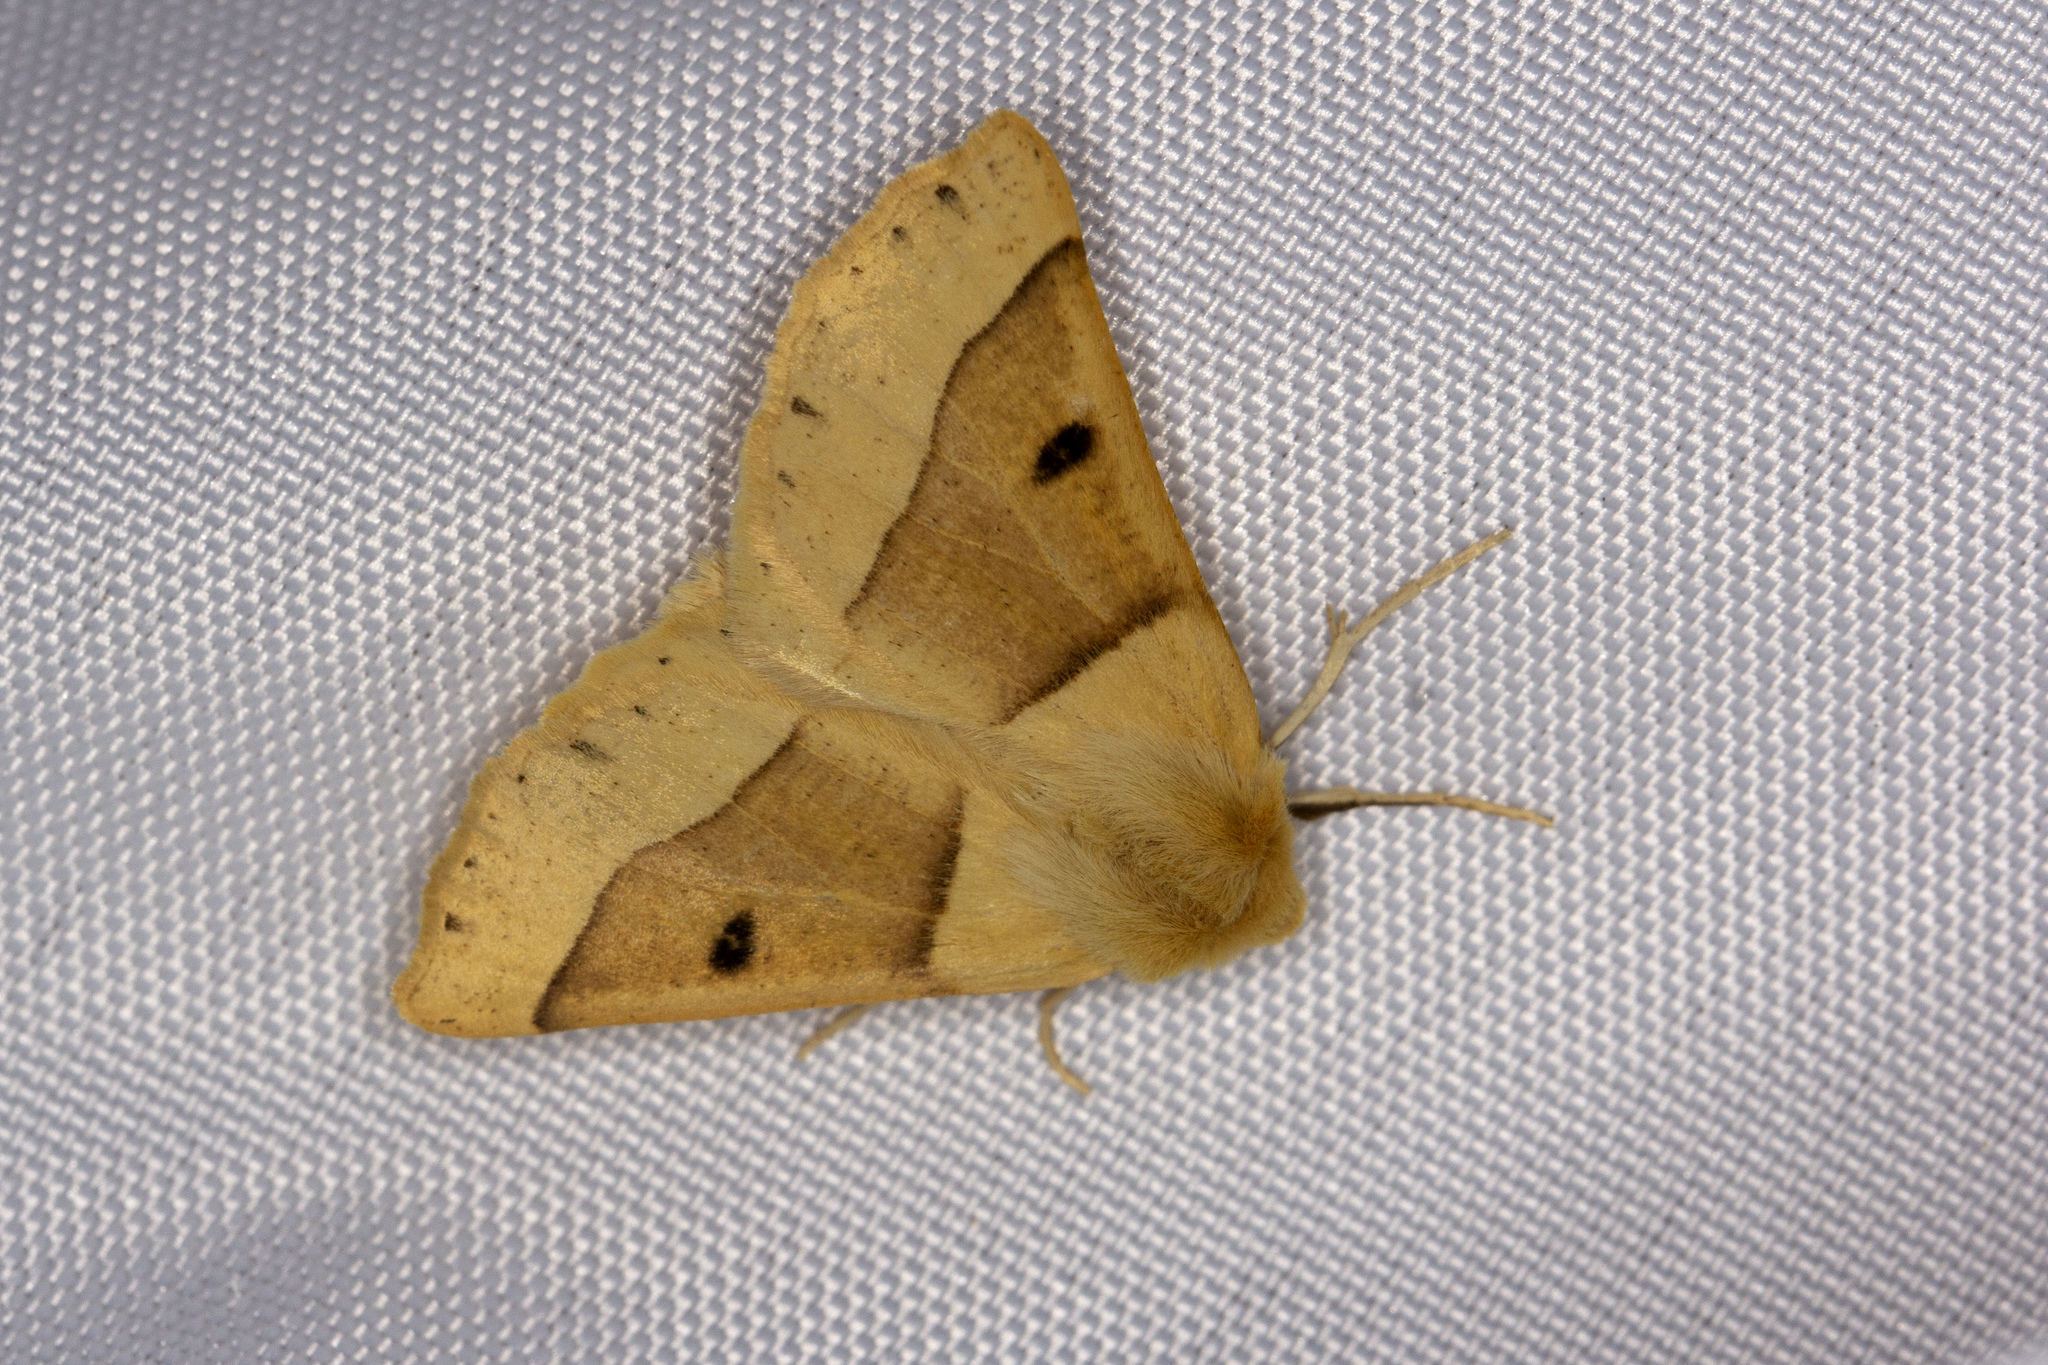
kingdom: Animalia
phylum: Arthropoda
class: Insecta
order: Lepidoptera
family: Geometridae
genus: Crocallis
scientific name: Crocallis elinguaria
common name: Scalloped oak
